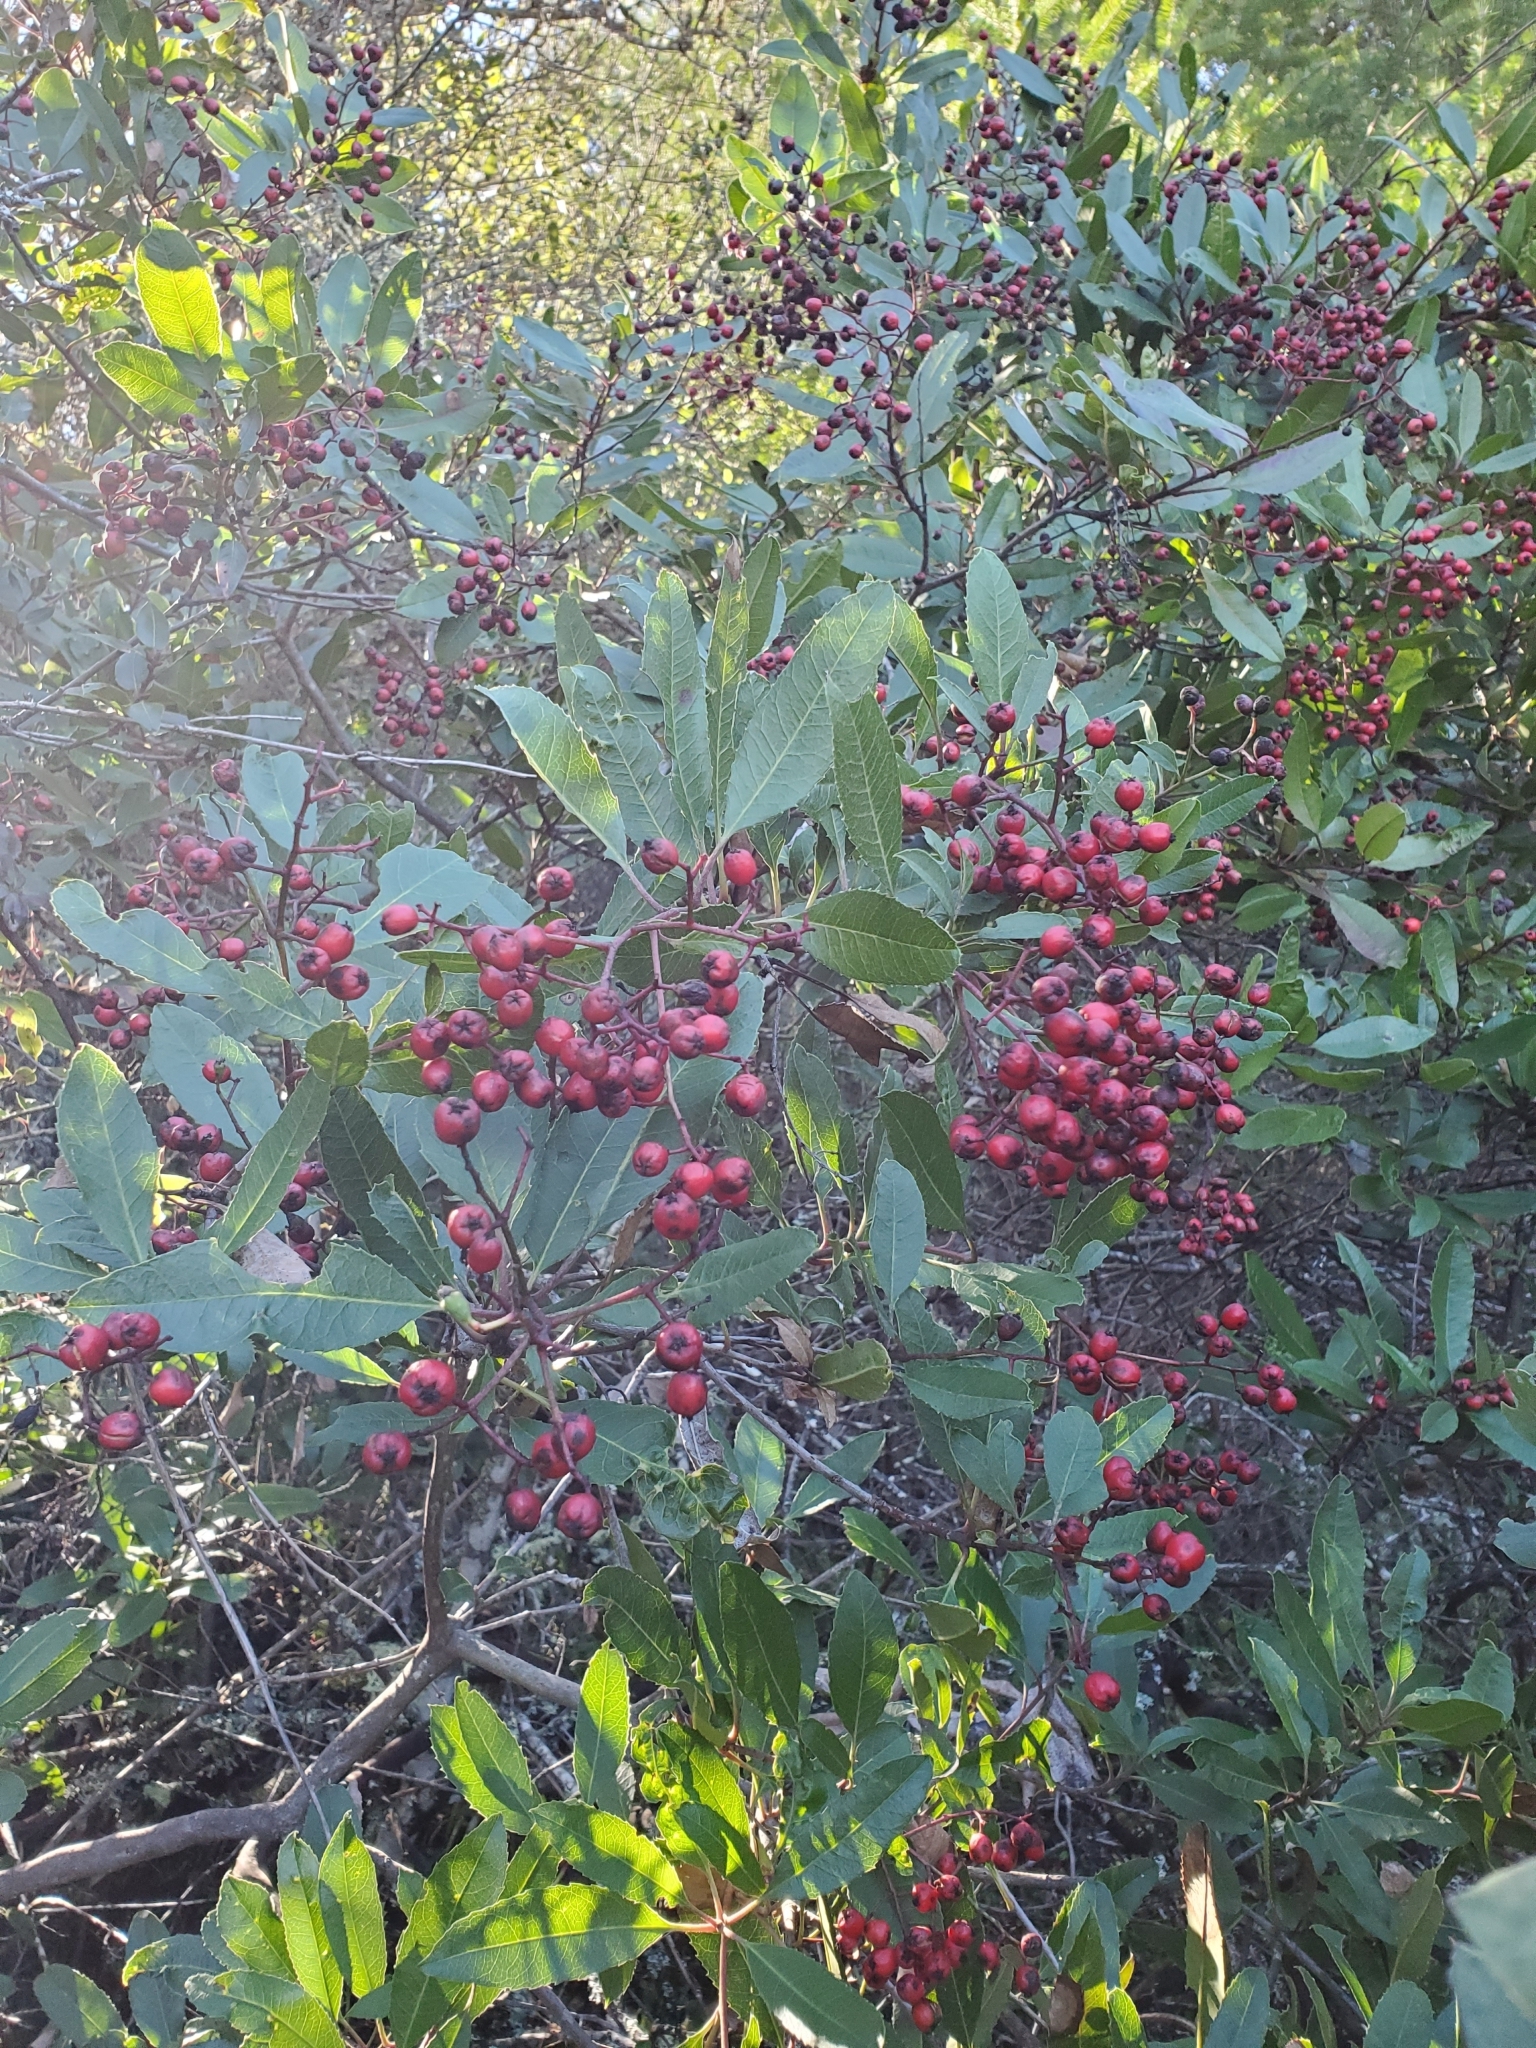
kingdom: Plantae
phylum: Tracheophyta
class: Magnoliopsida
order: Rosales
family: Rosaceae
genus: Heteromeles
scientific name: Heteromeles arbutifolia
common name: California-holly
